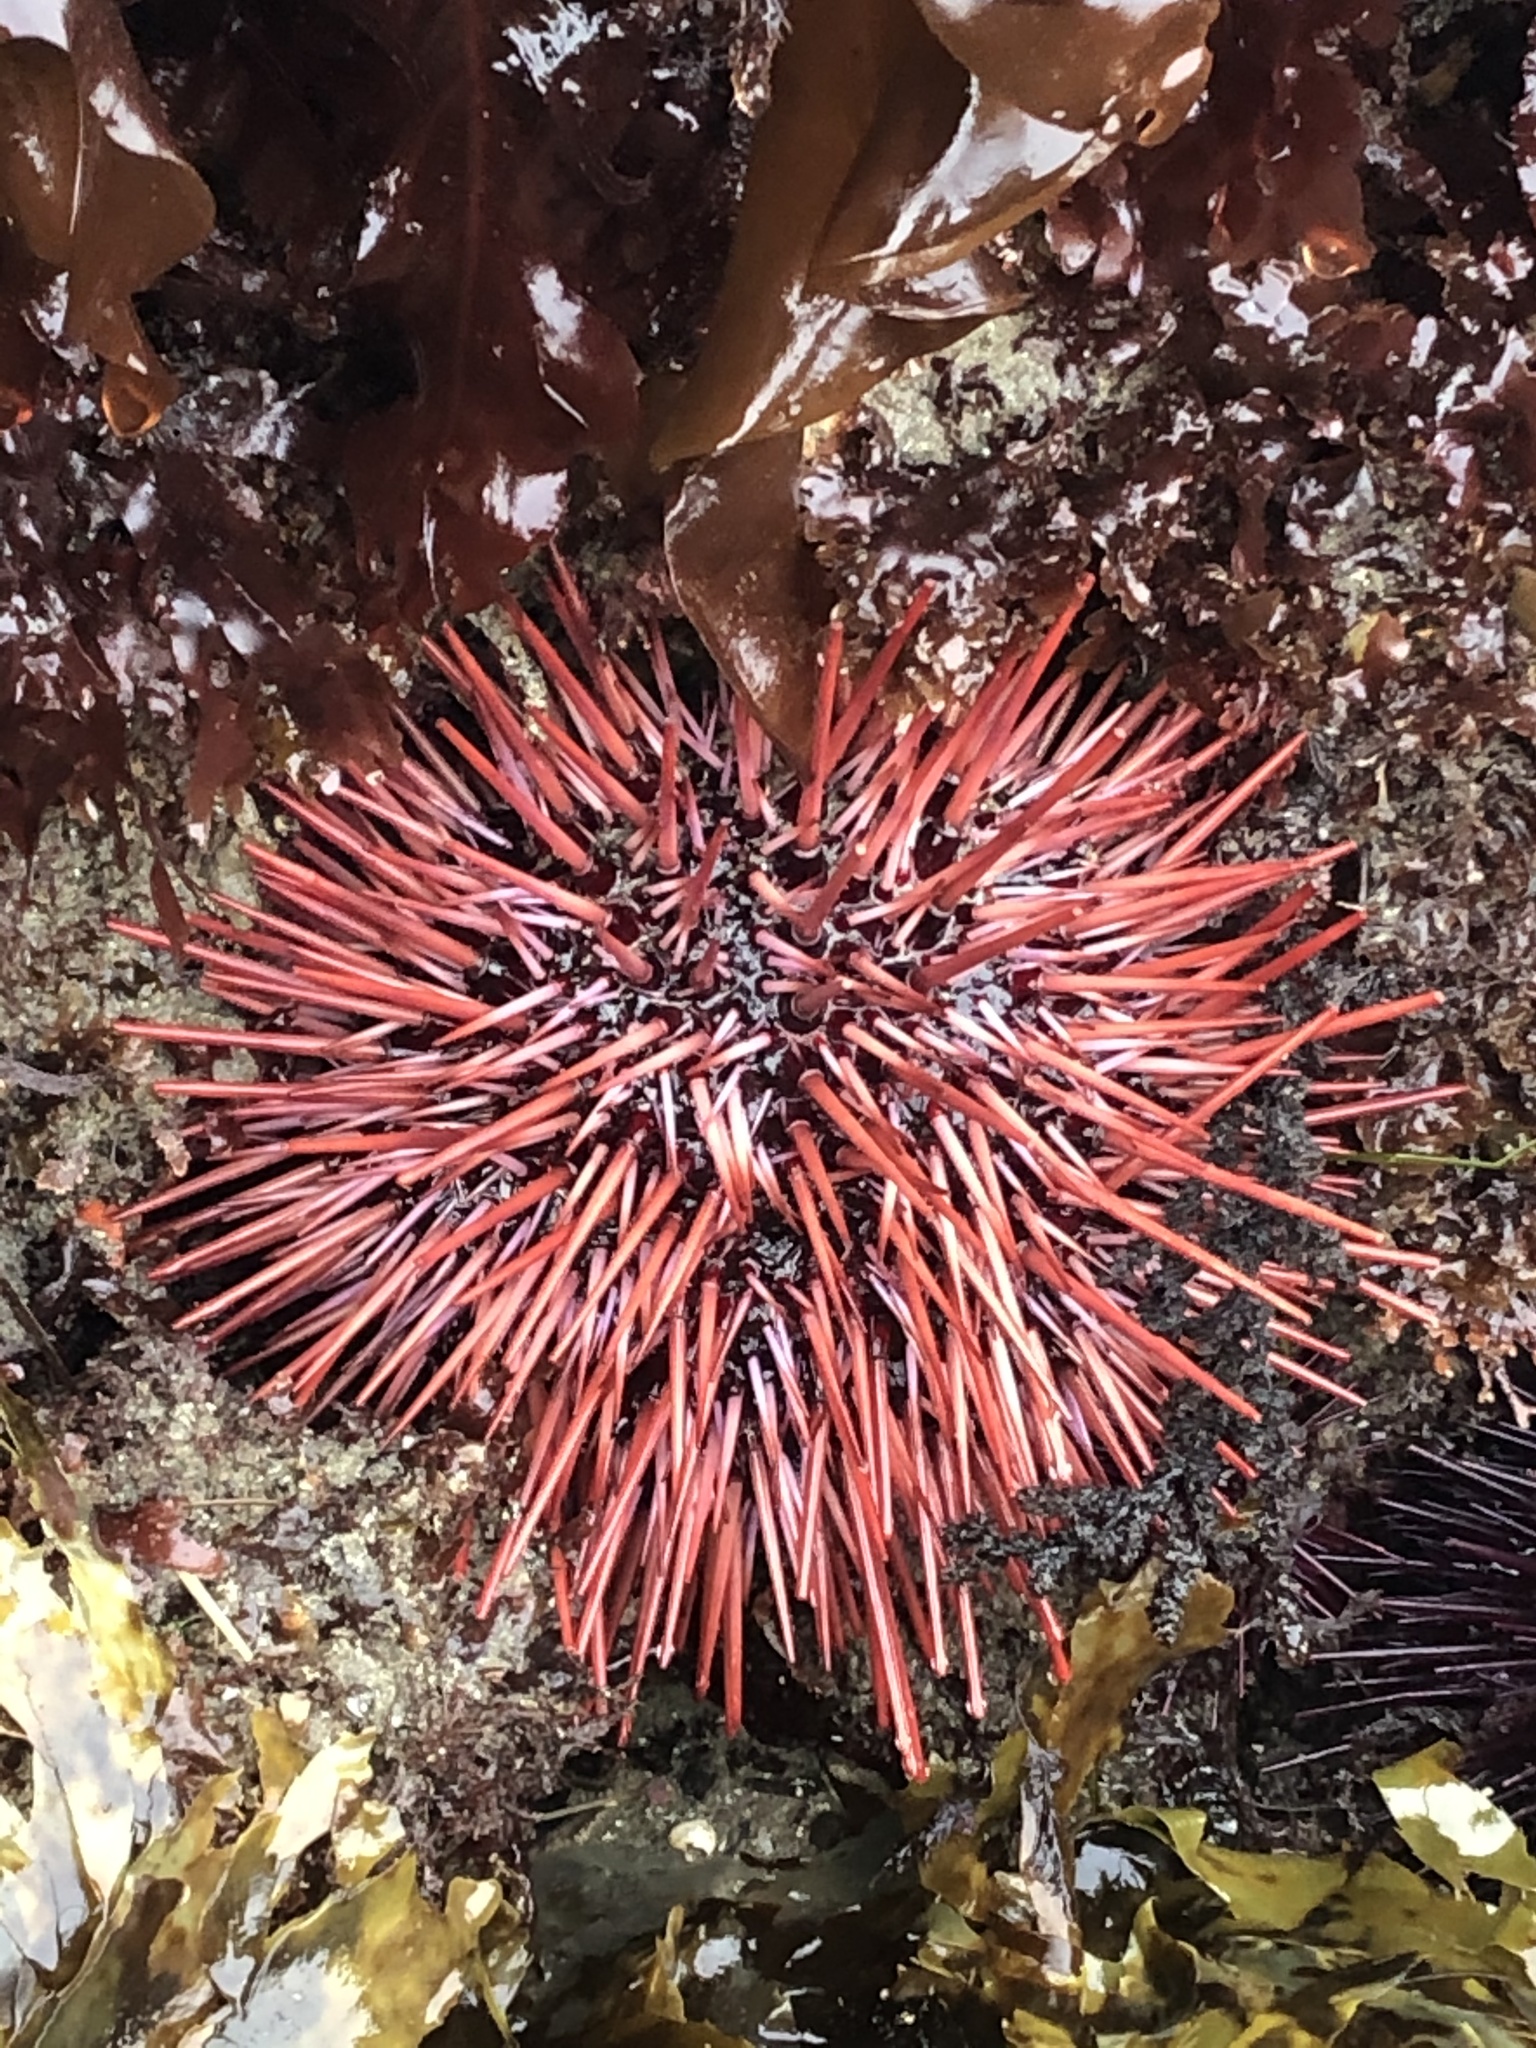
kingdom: Animalia
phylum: Echinodermata
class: Echinoidea
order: Camarodonta
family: Strongylocentrotidae
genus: Mesocentrotus
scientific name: Mesocentrotus franciscanus
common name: Red sea urchin
